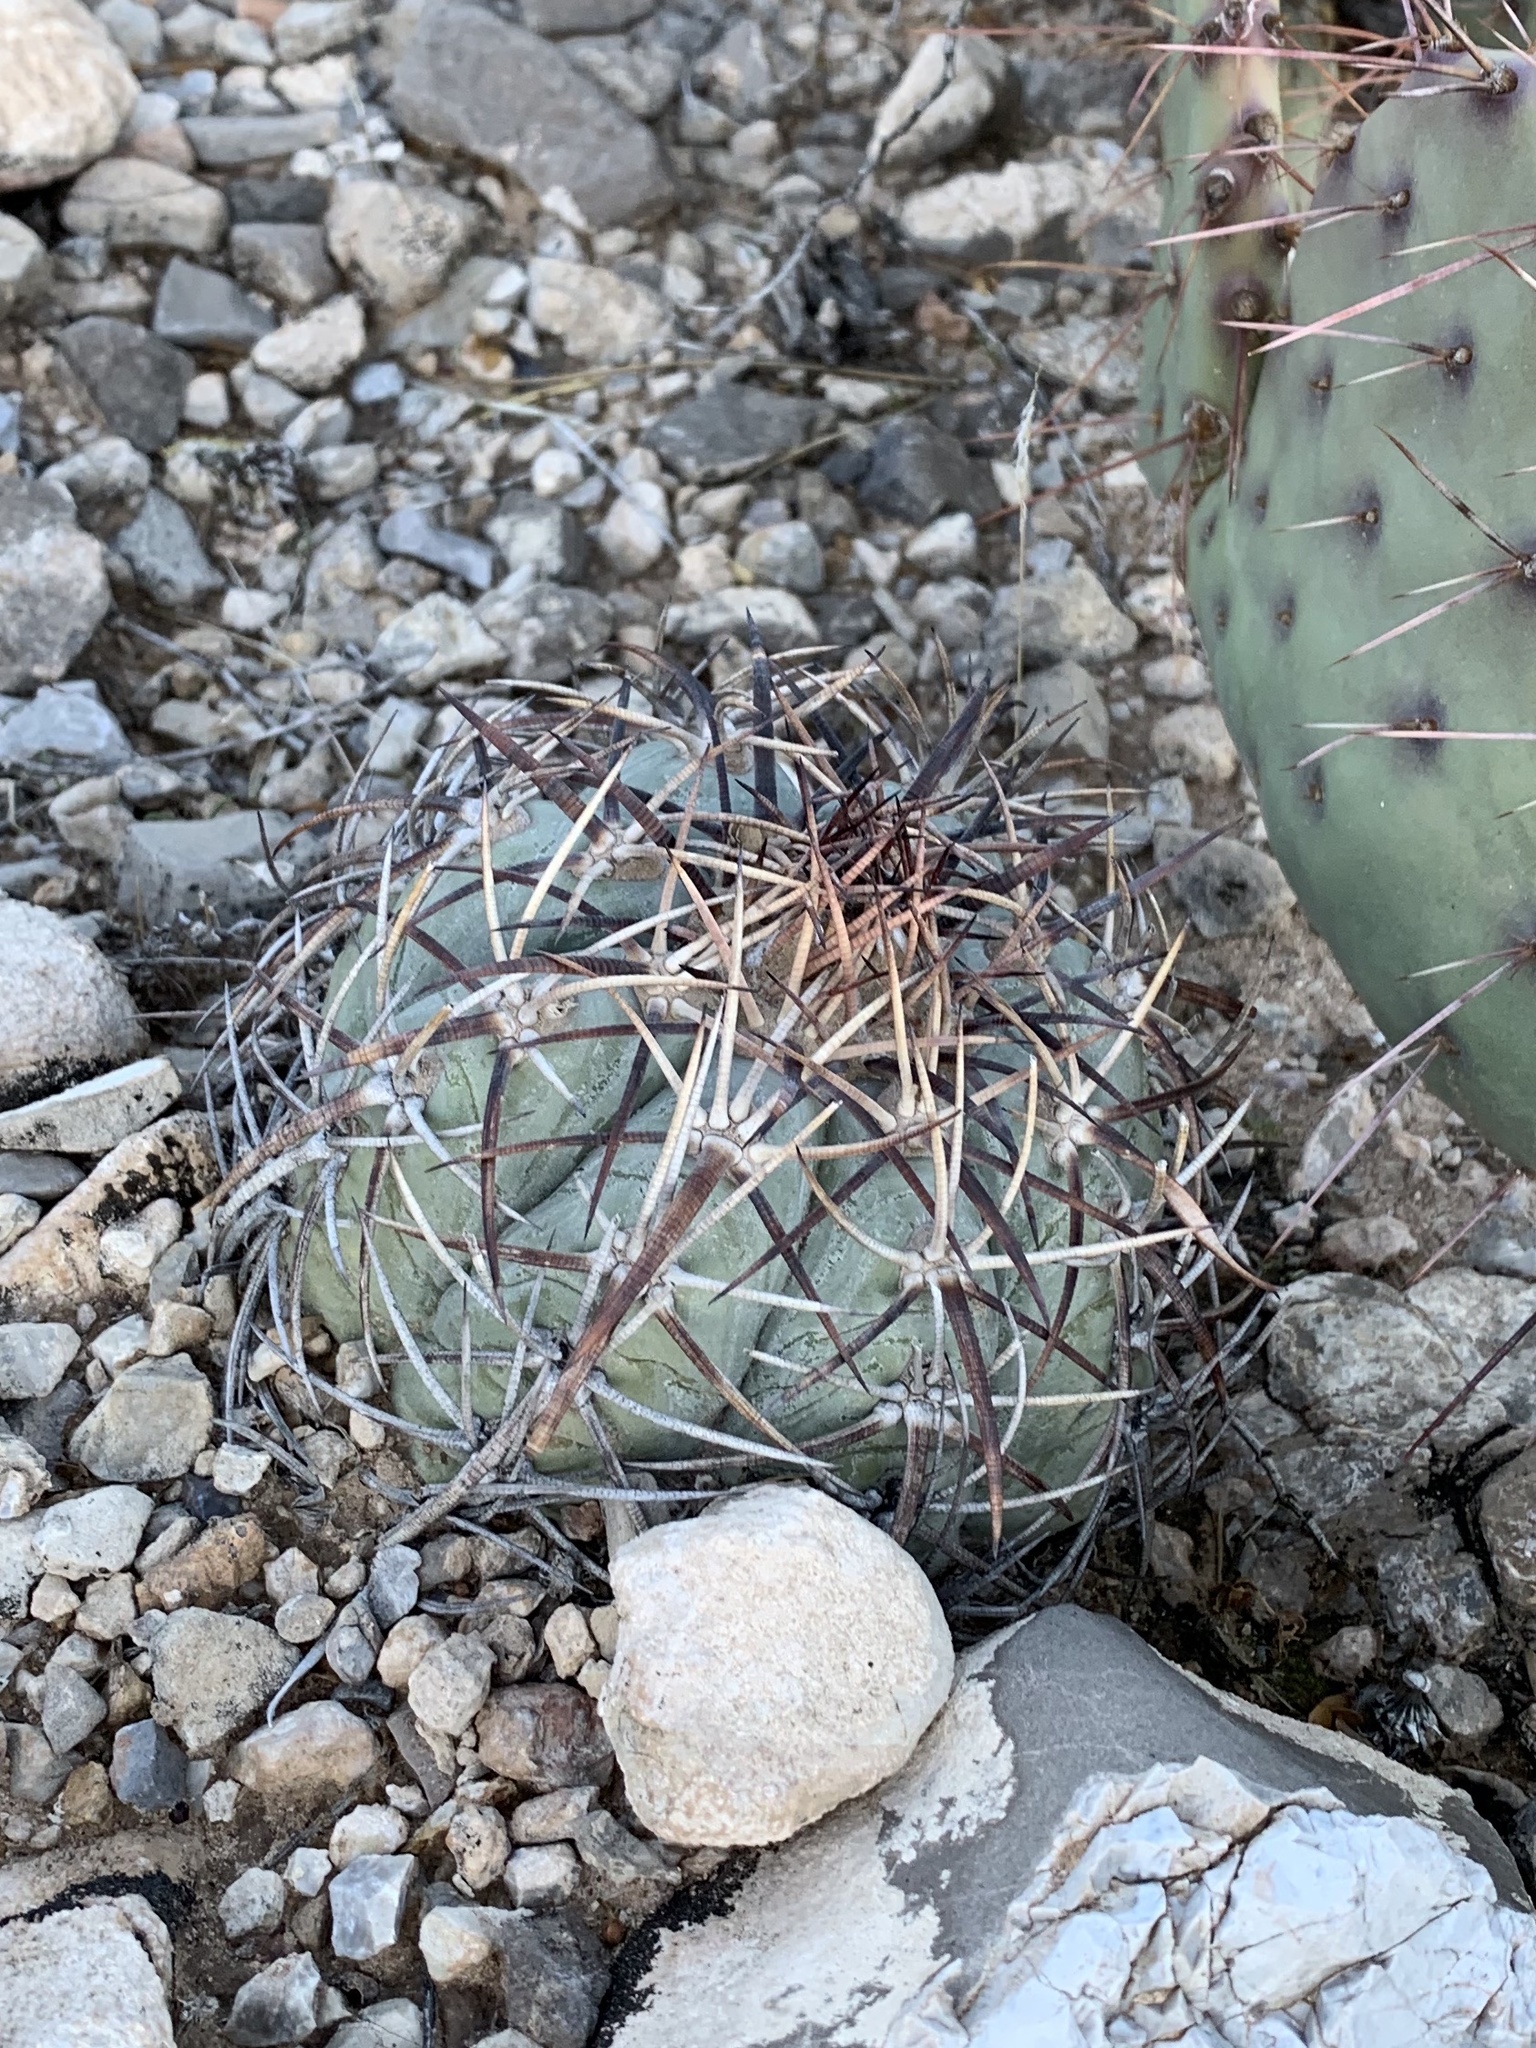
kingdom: Plantae
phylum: Tracheophyta
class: Magnoliopsida
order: Caryophyllales
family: Cactaceae
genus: Echinocactus
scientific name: Echinocactus horizonthalonius
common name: Devilshead
